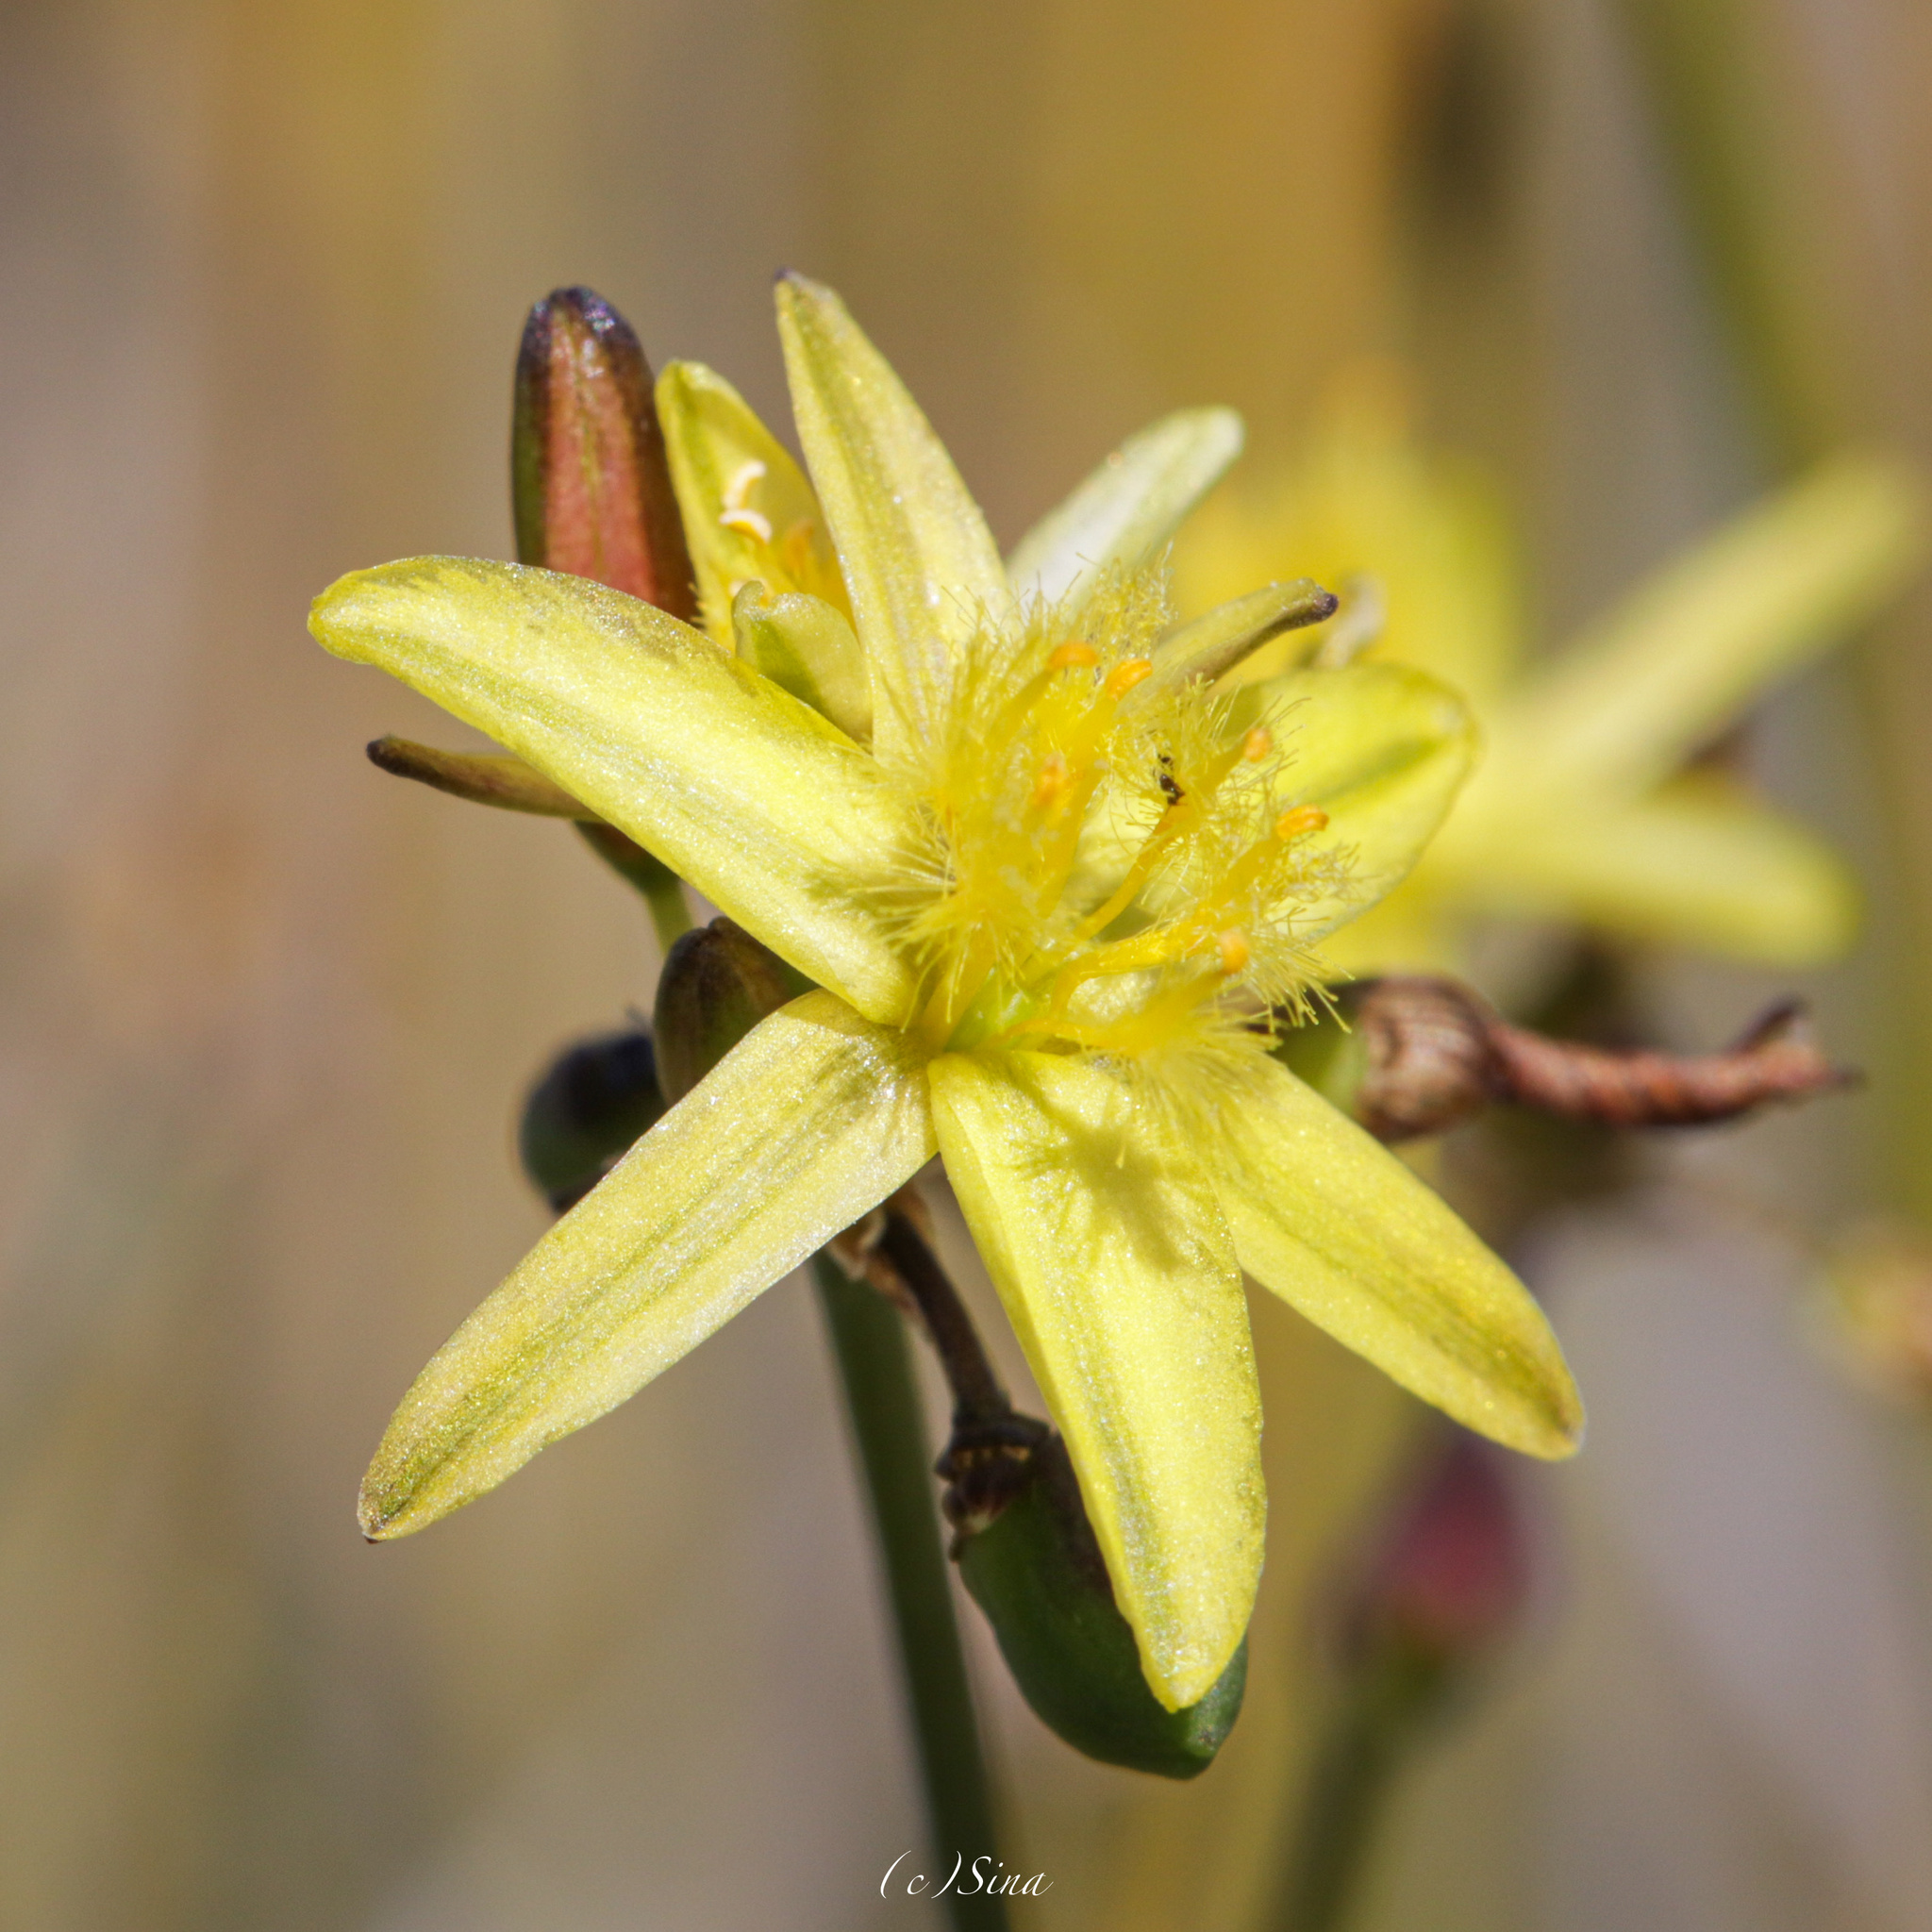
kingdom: Plantae
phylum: Tracheophyta
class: Liliopsida
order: Asparagales
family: Asphodelaceae
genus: Tricoryne
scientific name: Tricoryne elatior
